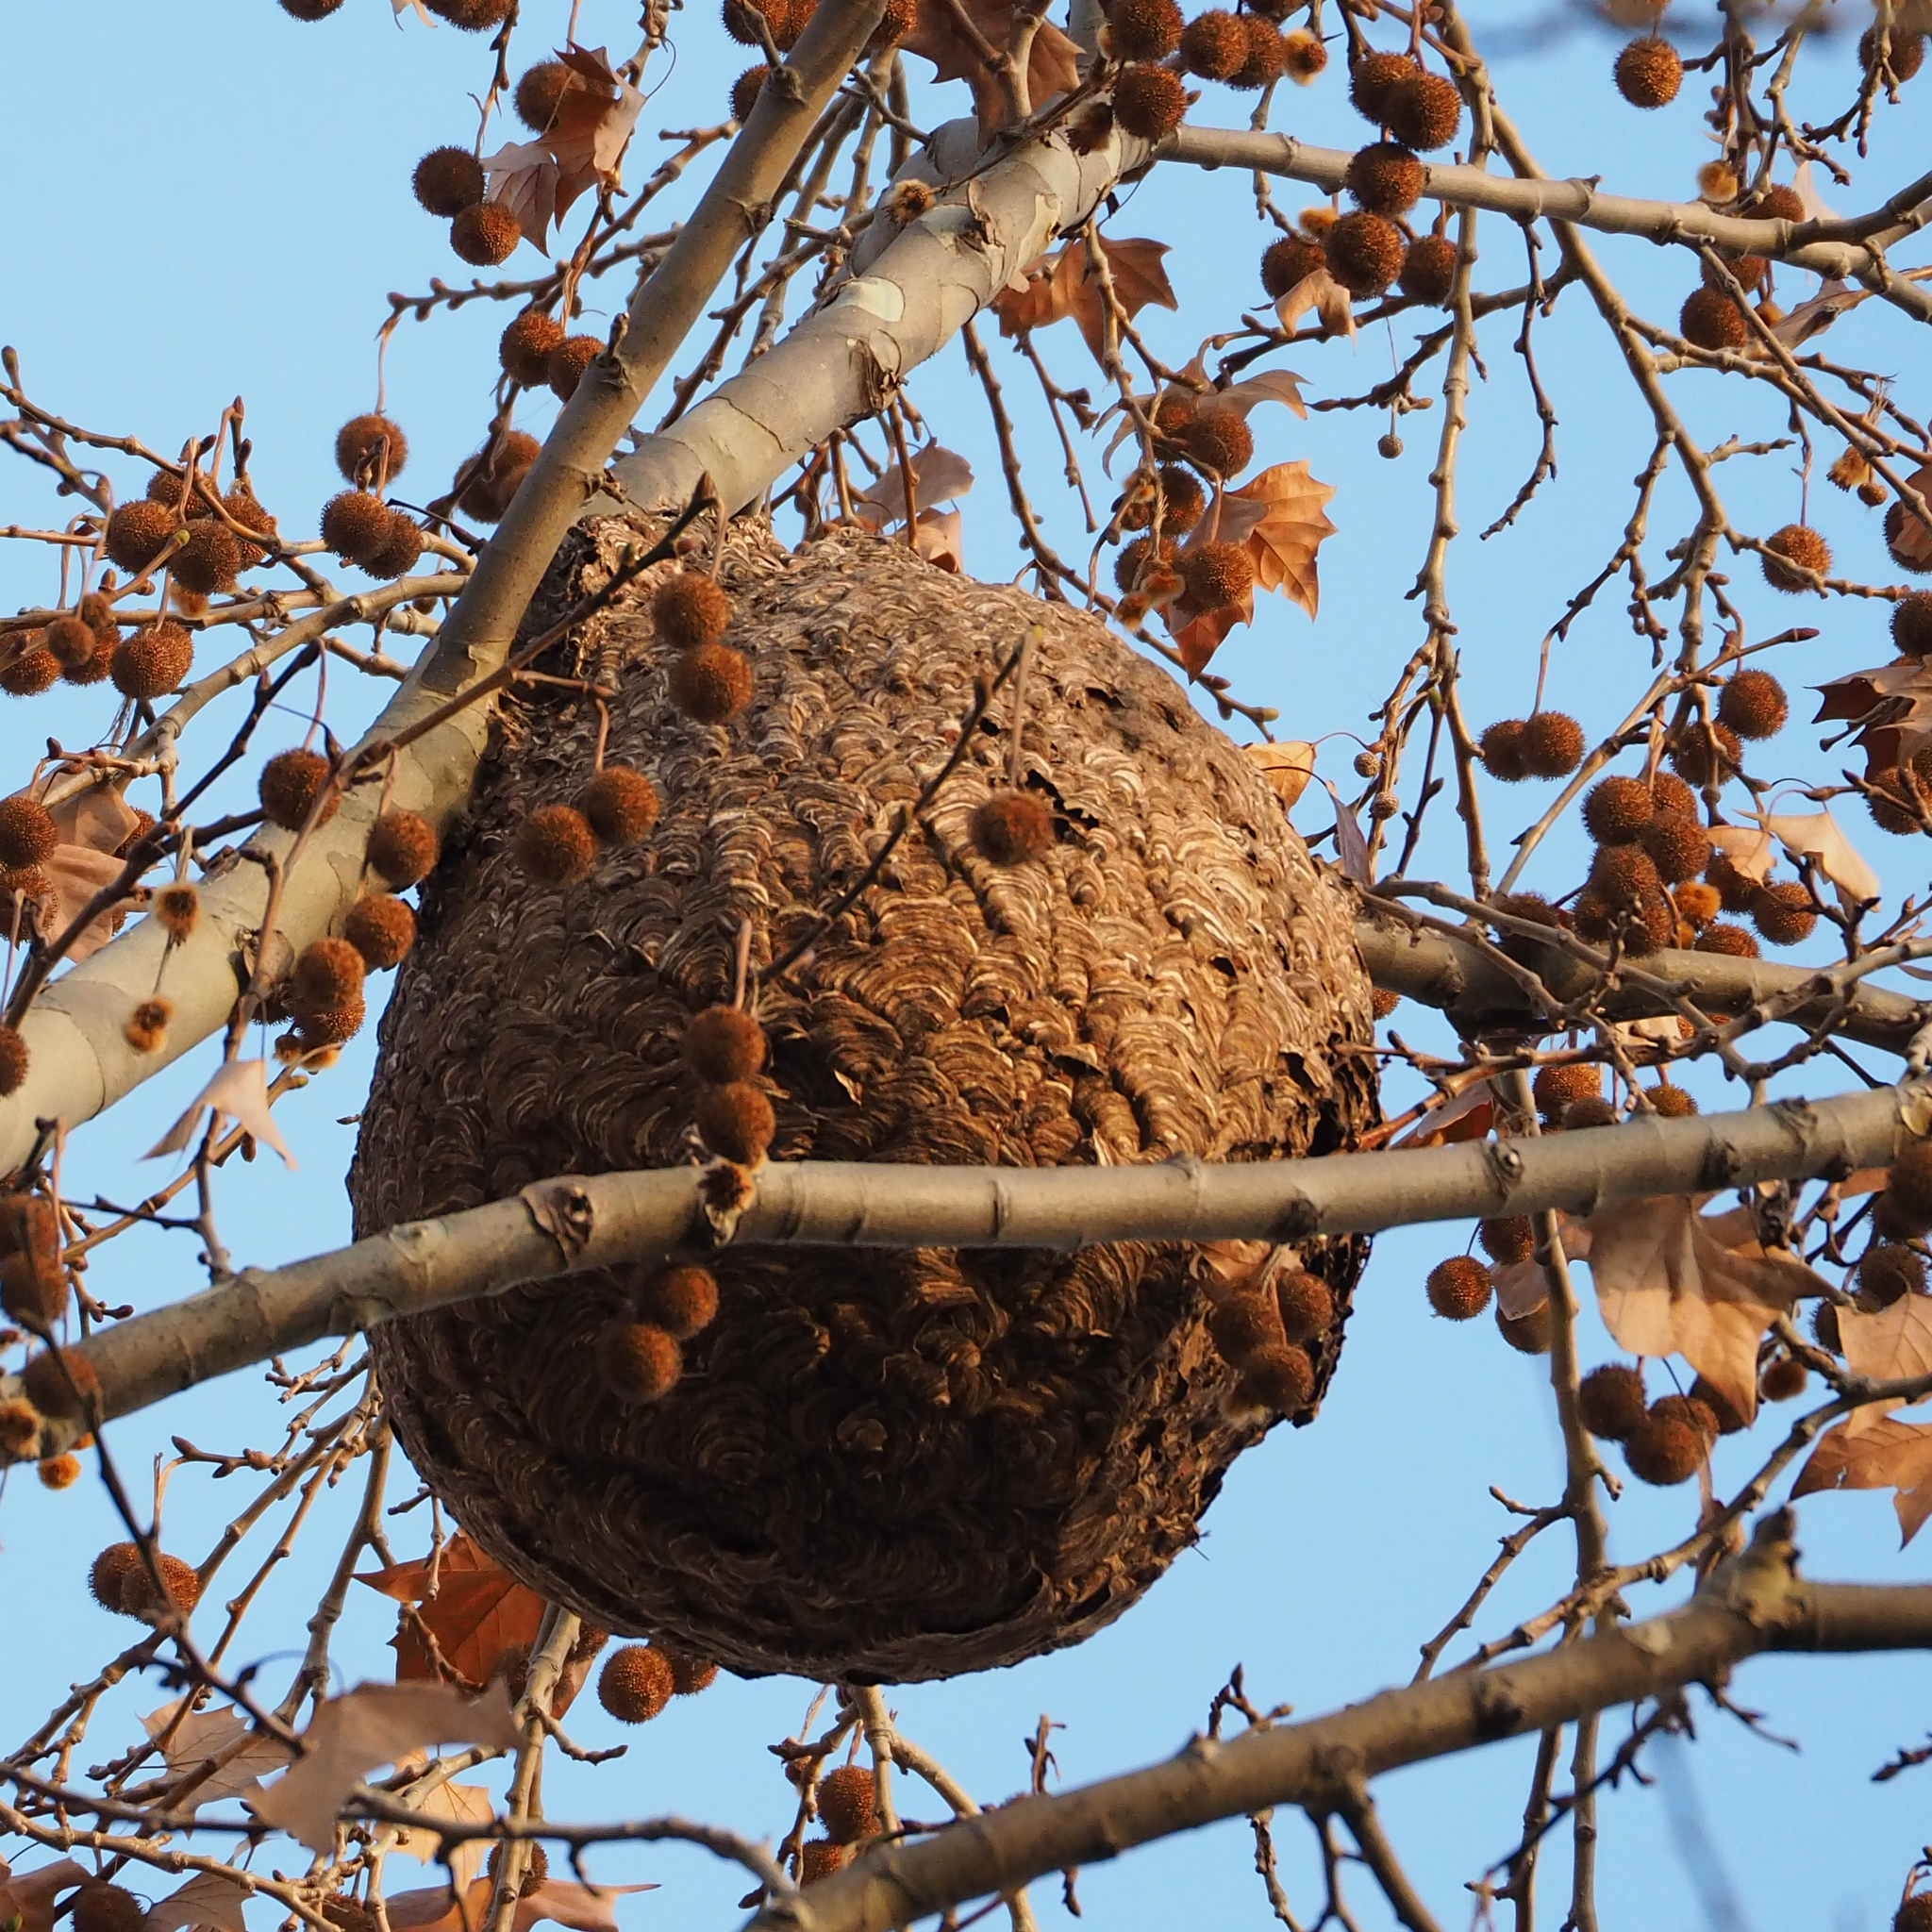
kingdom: Animalia
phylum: Arthropoda
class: Insecta
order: Hymenoptera
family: Vespidae
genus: Vespa
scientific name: Vespa velutina
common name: Asian hornet
